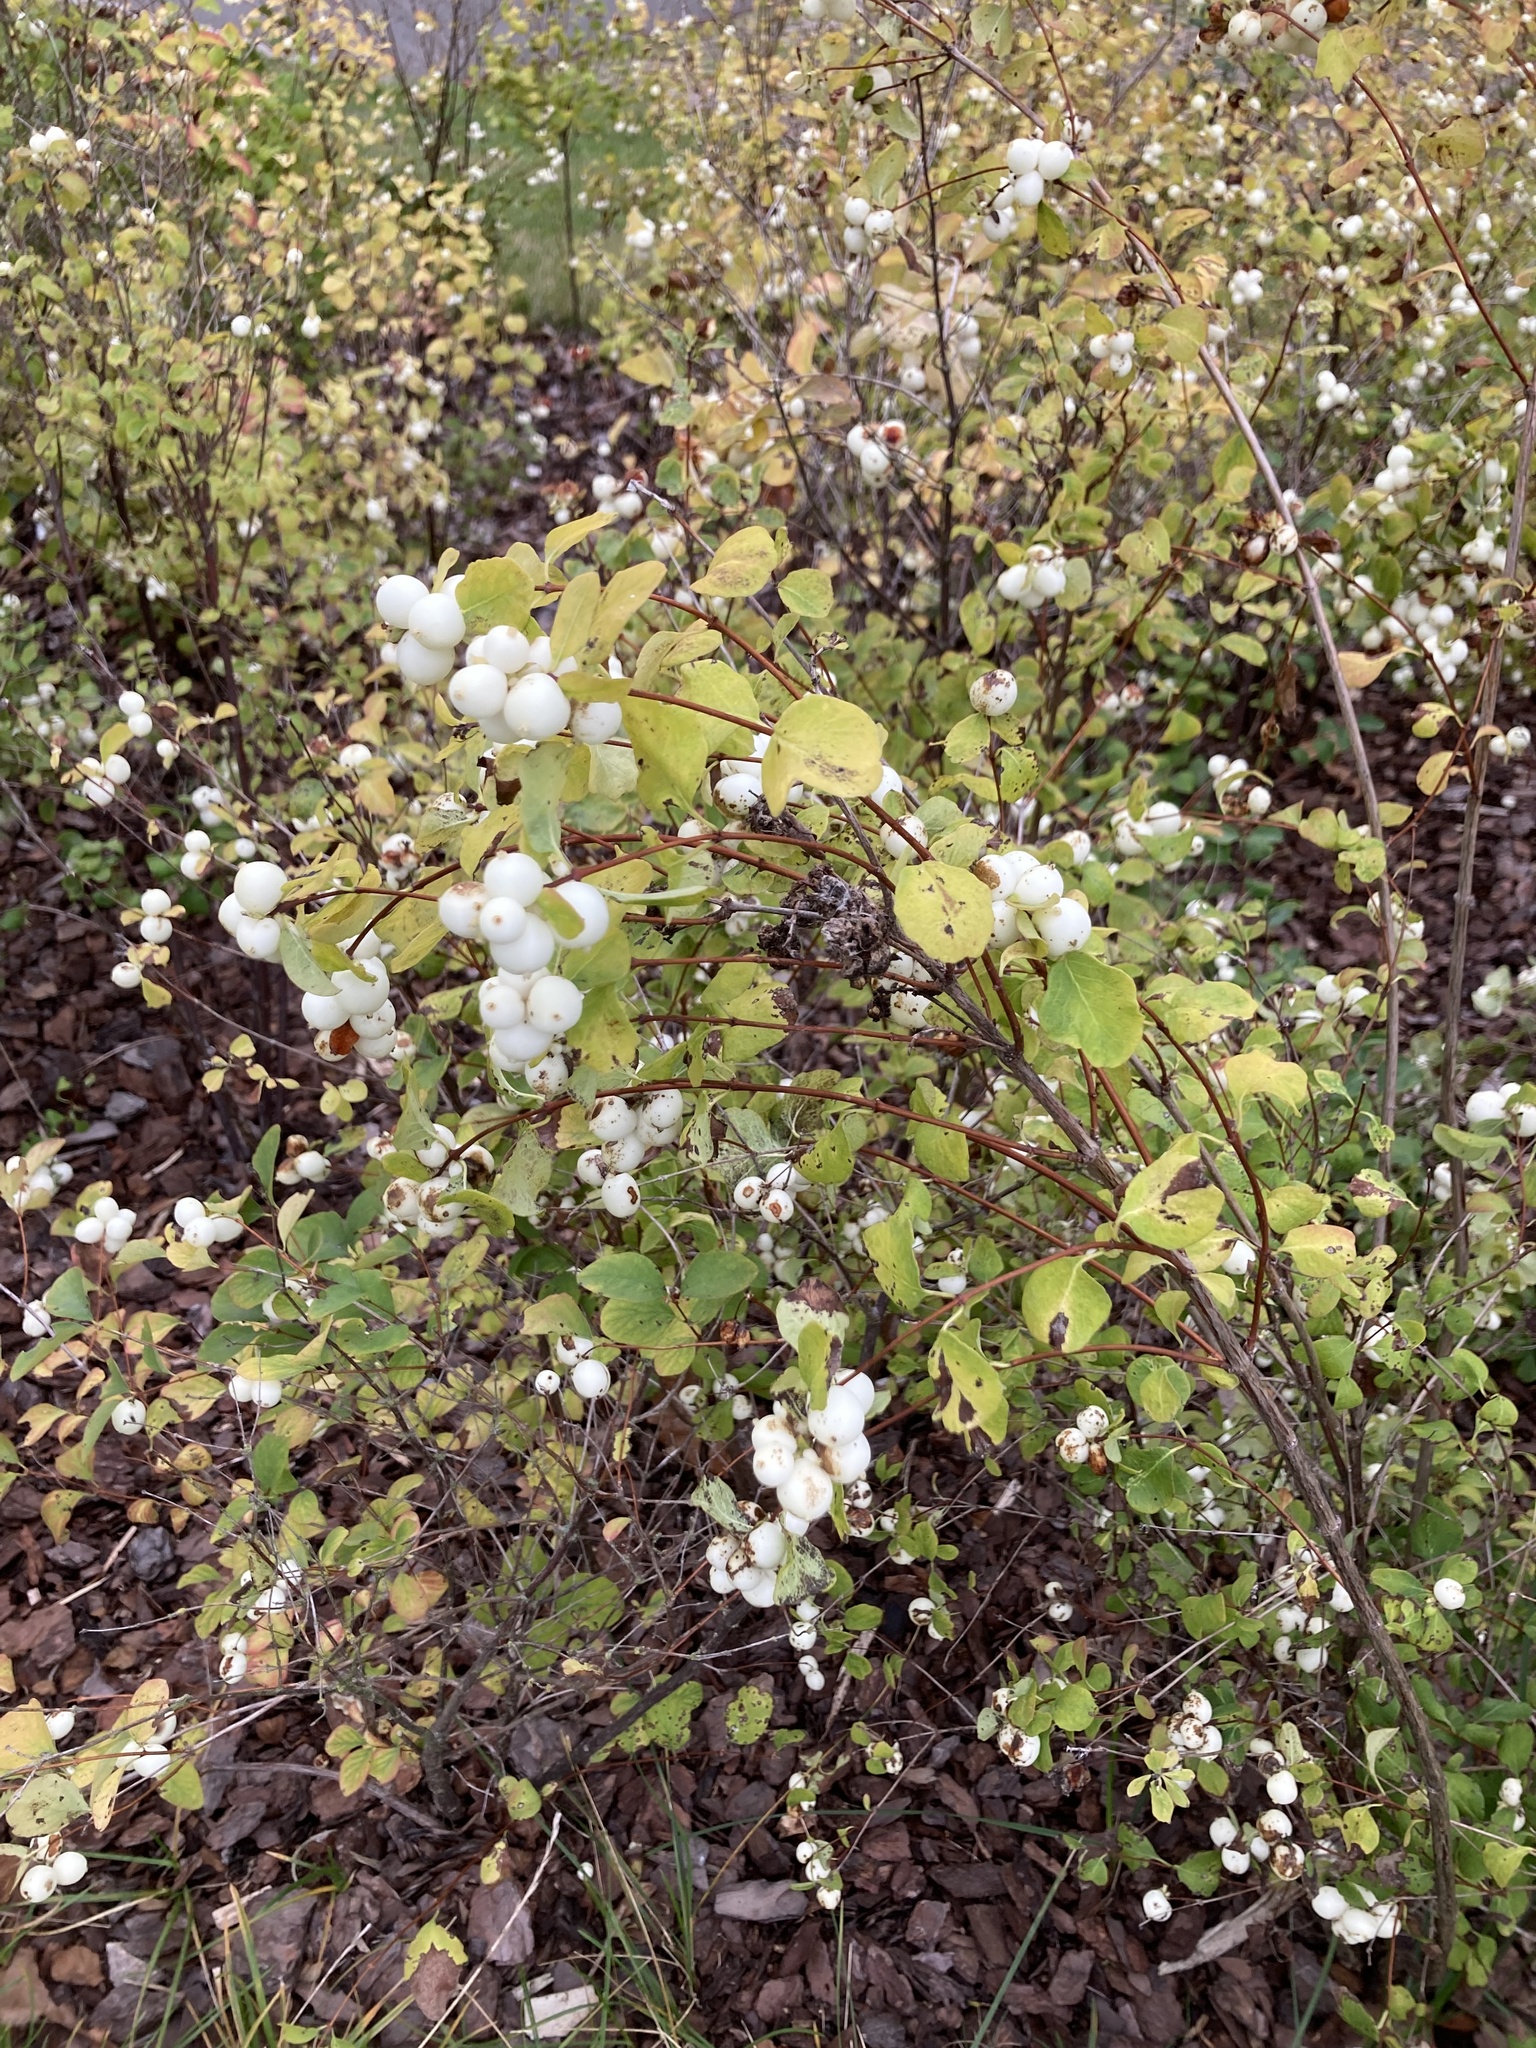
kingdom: Plantae
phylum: Tracheophyta
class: Magnoliopsida
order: Dipsacales
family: Caprifoliaceae
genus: Symphoricarpos
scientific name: Symphoricarpos albus
